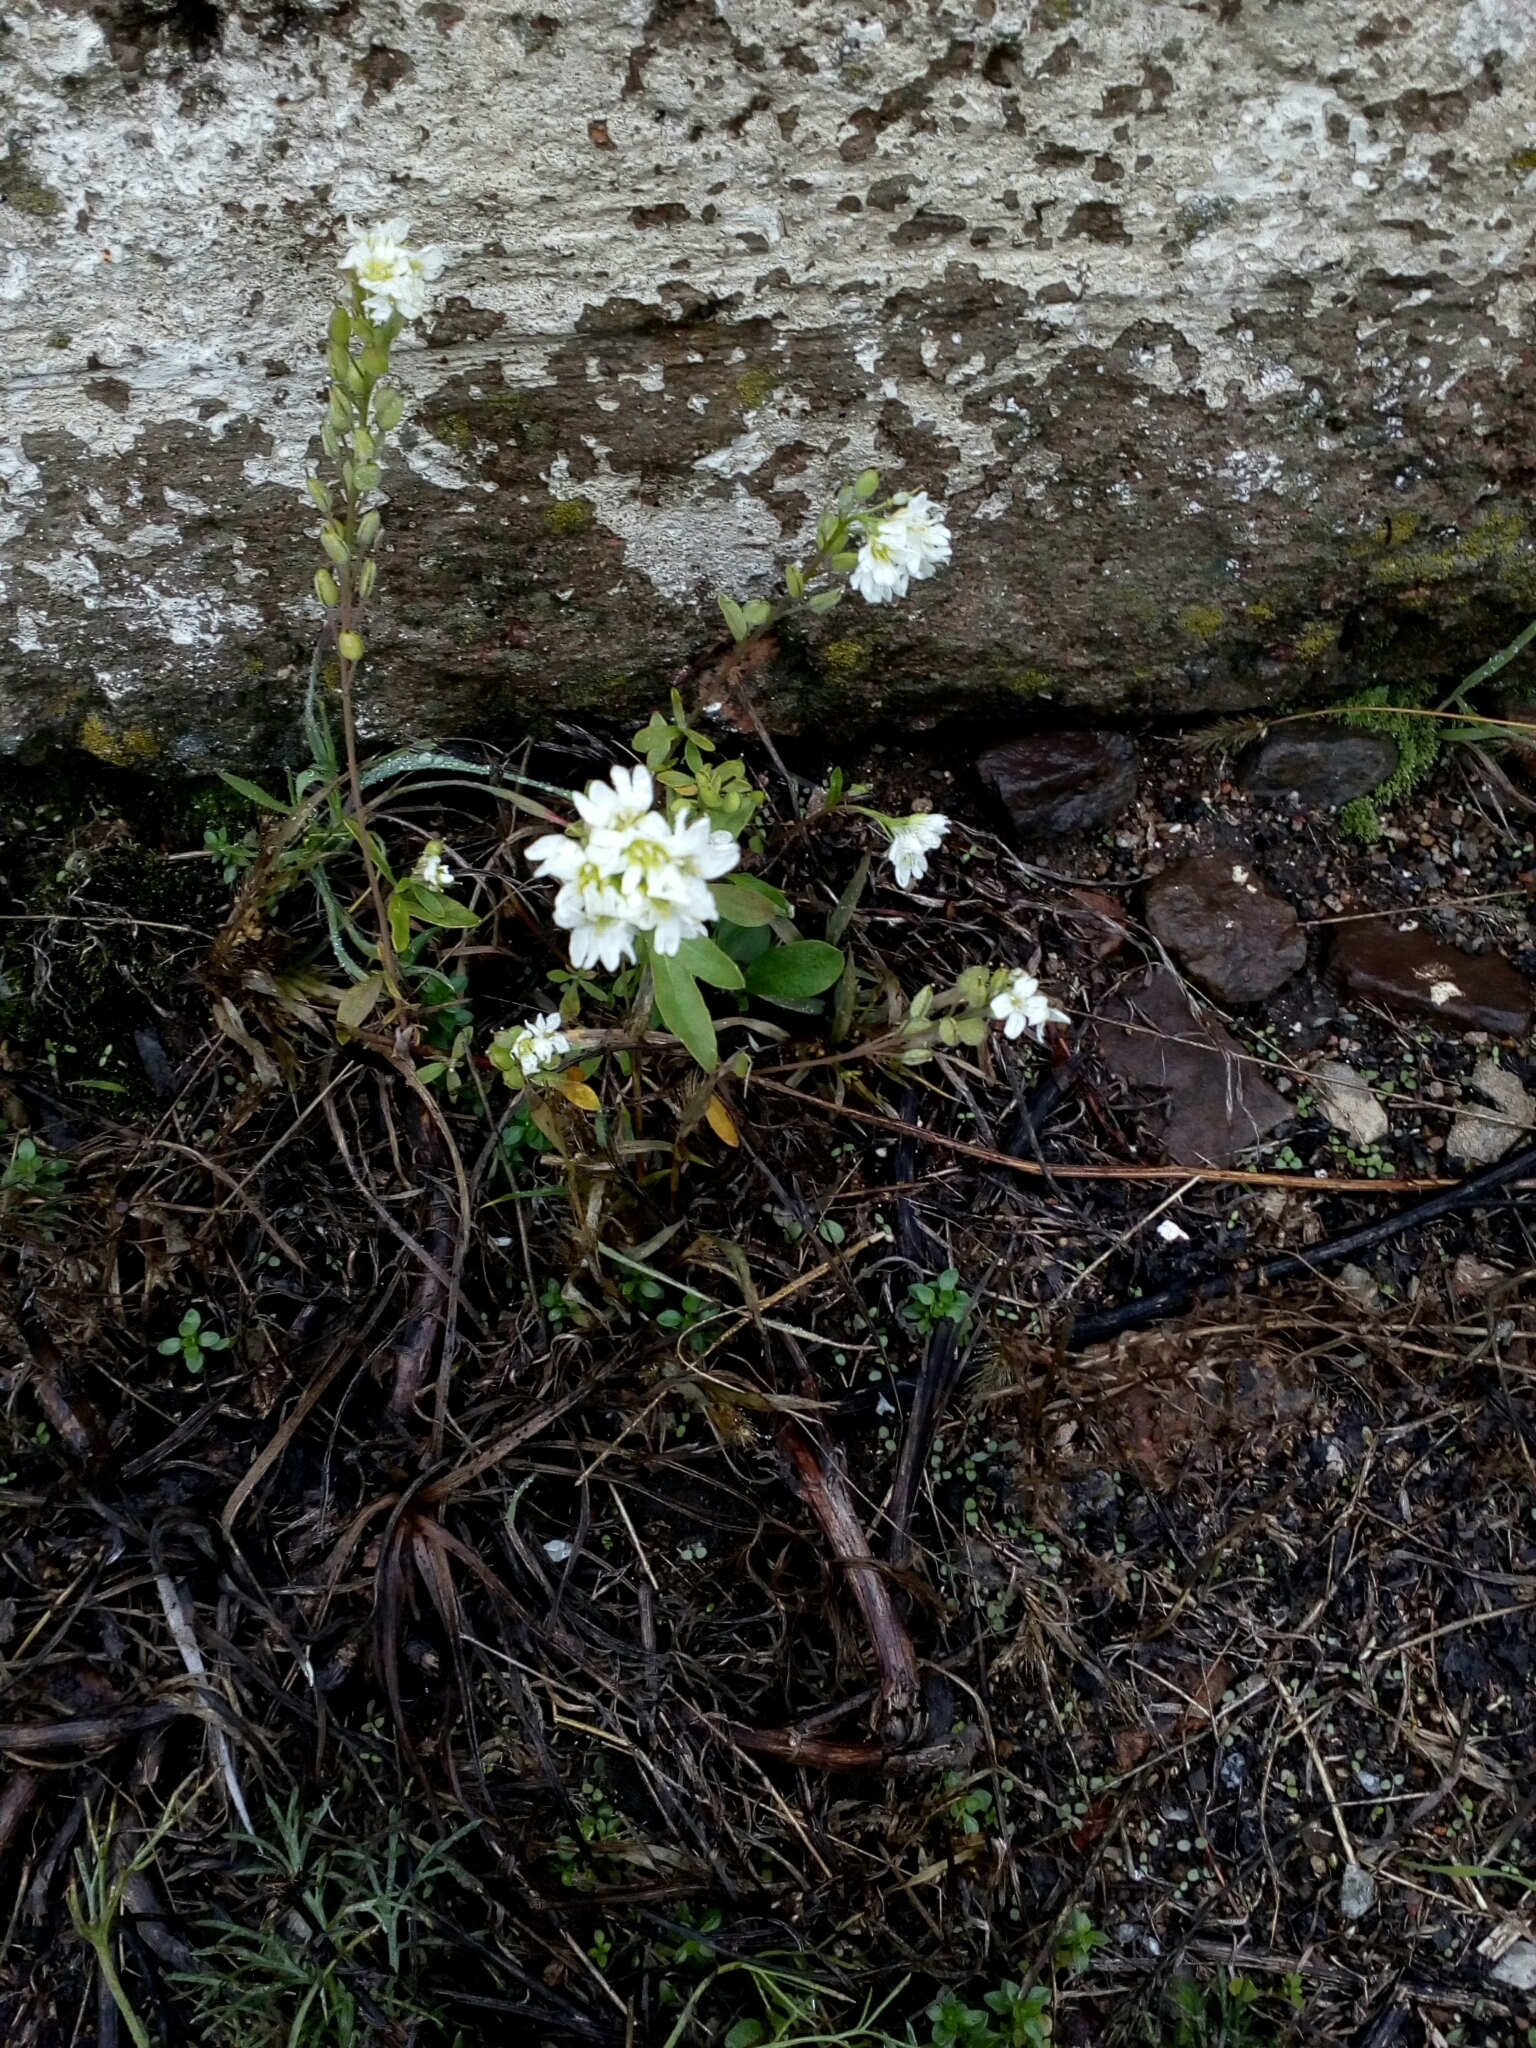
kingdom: Plantae
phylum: Tracheophyta
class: Magnoliopsida
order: Brassicales
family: Brassicaceae
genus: Berteroa
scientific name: Berteroa incana
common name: Hoary alison
